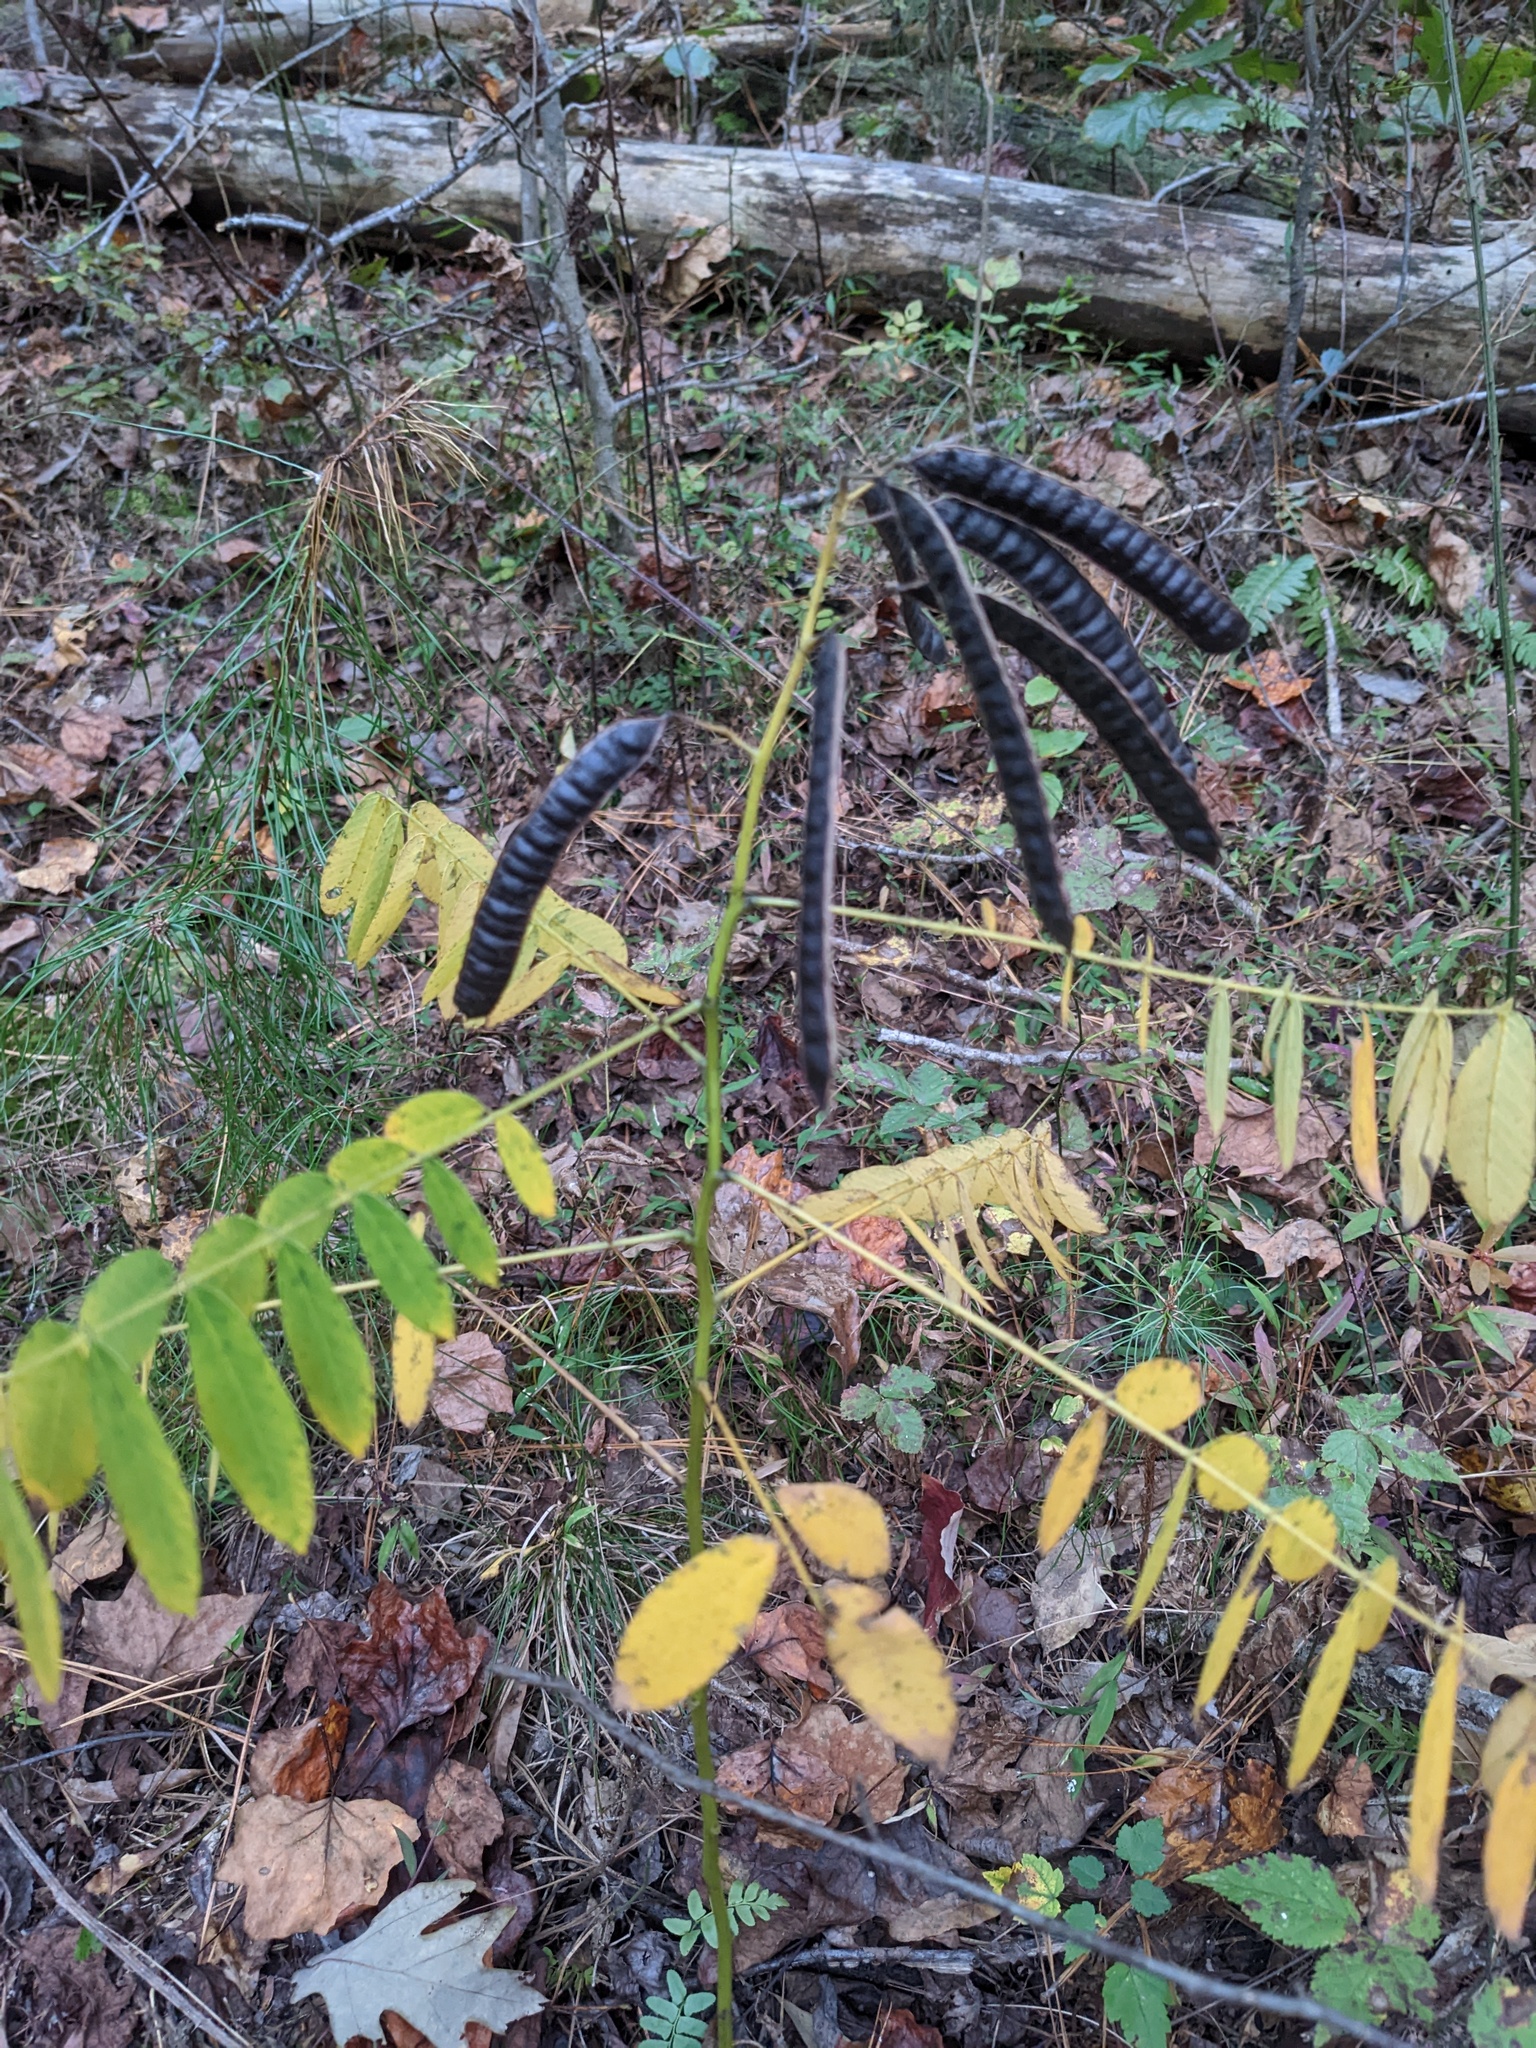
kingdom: Plantae
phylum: Tracheophyta
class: Magnoliopsida
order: Fabales
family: Fabaceae
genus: Senna
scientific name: Senna marilandica
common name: American senna
